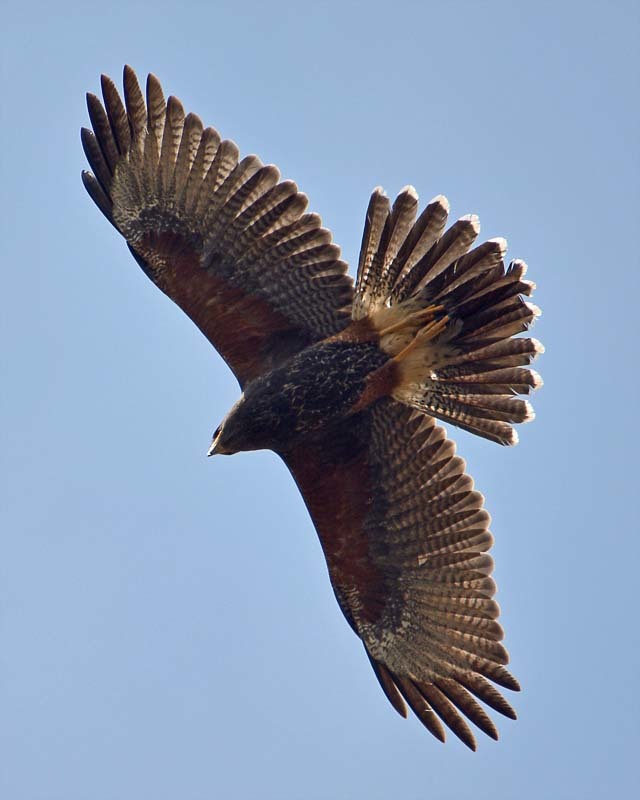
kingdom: Animalia
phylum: Chordata
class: Aves
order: Accipitriformes
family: Accipitridae
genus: Parabuteo
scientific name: Parabuteo unicinctus
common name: Harris's hawk
